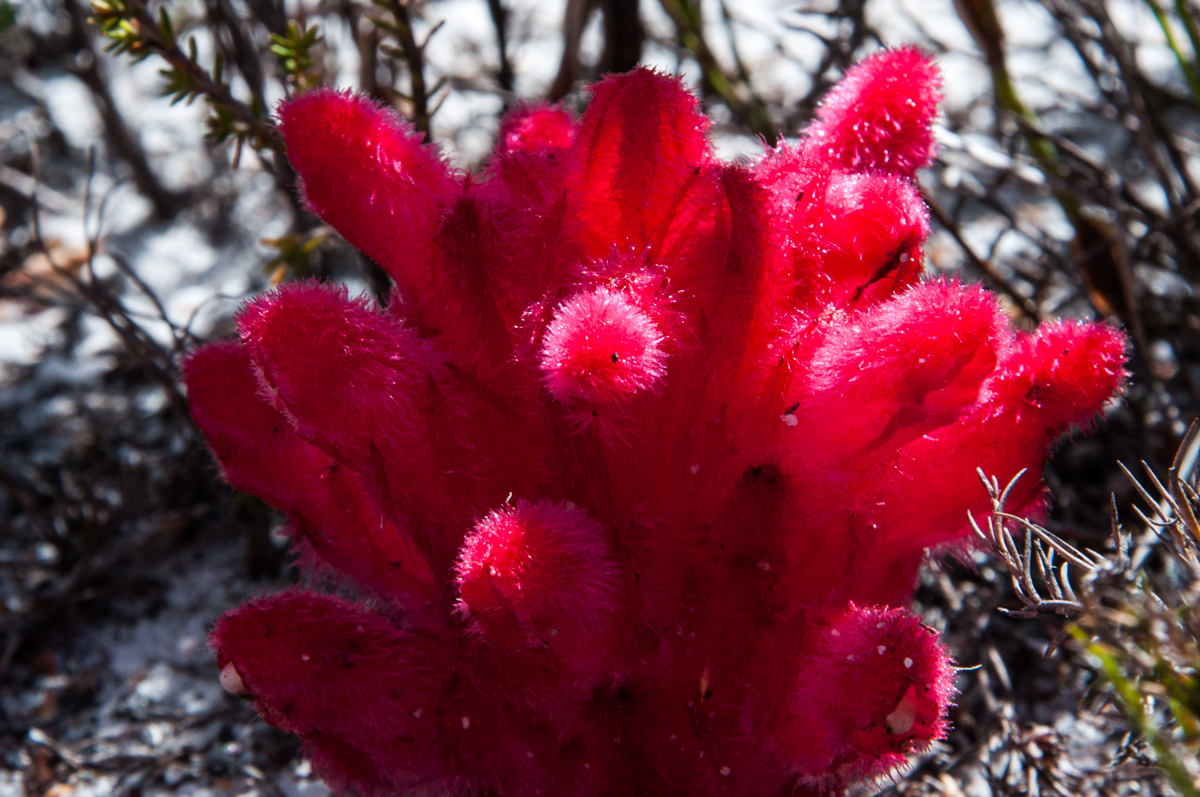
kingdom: Plantae
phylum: Tracheophyta
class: Magnoliopsida
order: Lamiales
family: Orobanchaceae
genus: Hyobanche
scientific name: Hyobanche sanguinea
